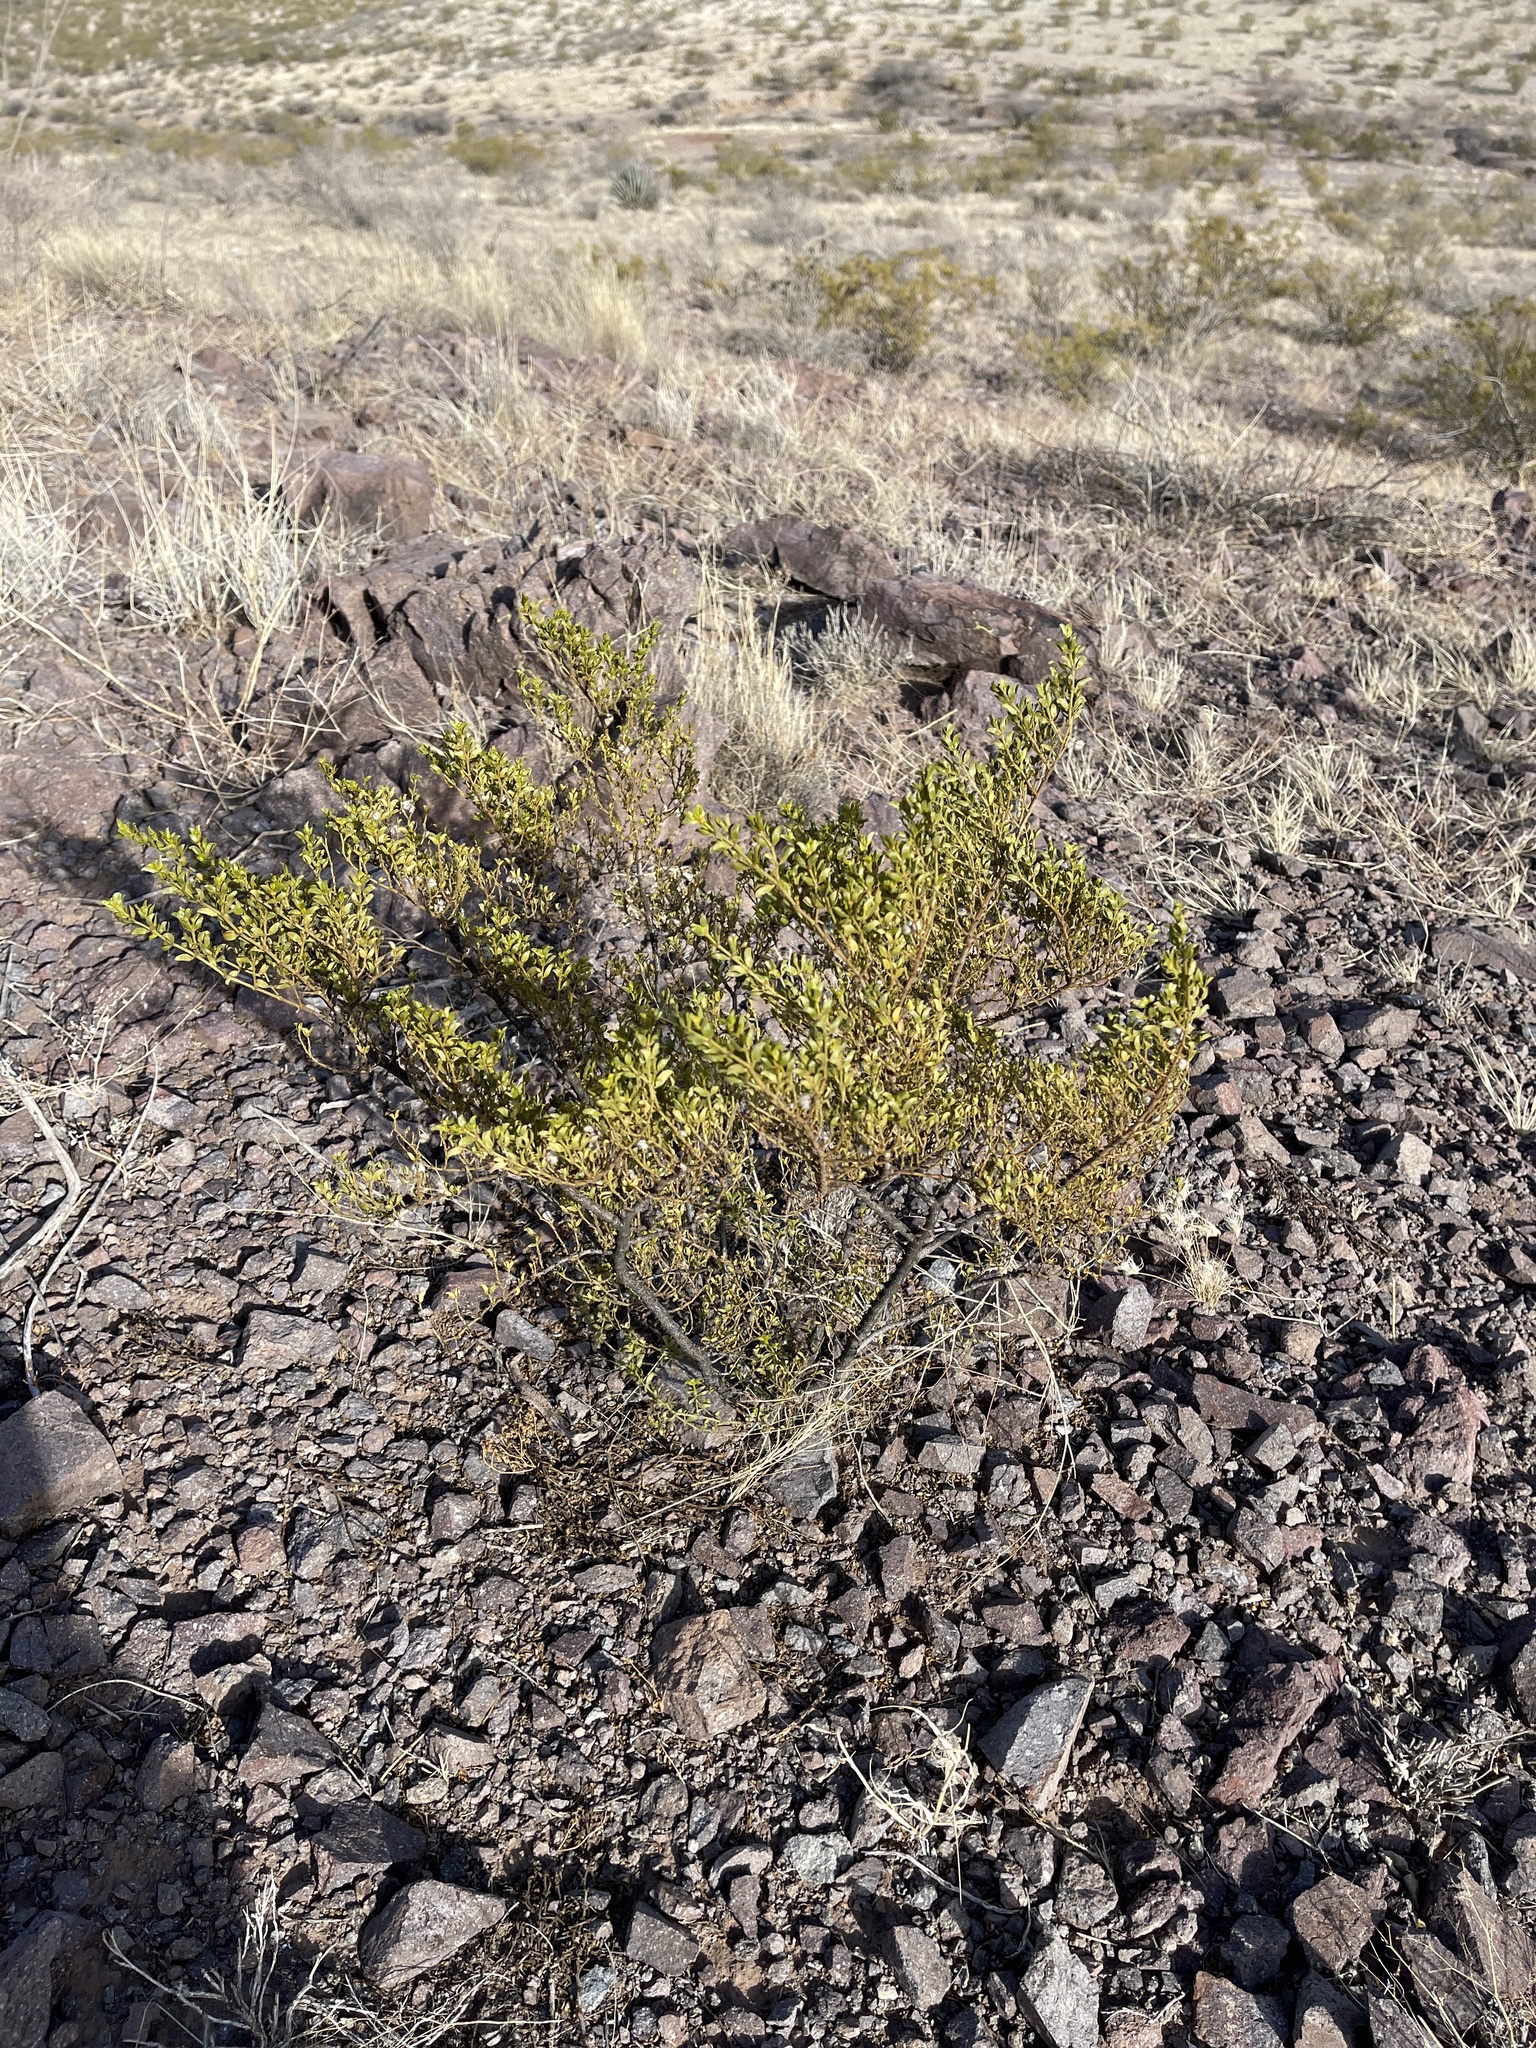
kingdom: Plantae
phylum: Tracheophyta
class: Magnoliopsida
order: Zygophyllales
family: Zygophyllaceae
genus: Larrea
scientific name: Larrea tridentata
